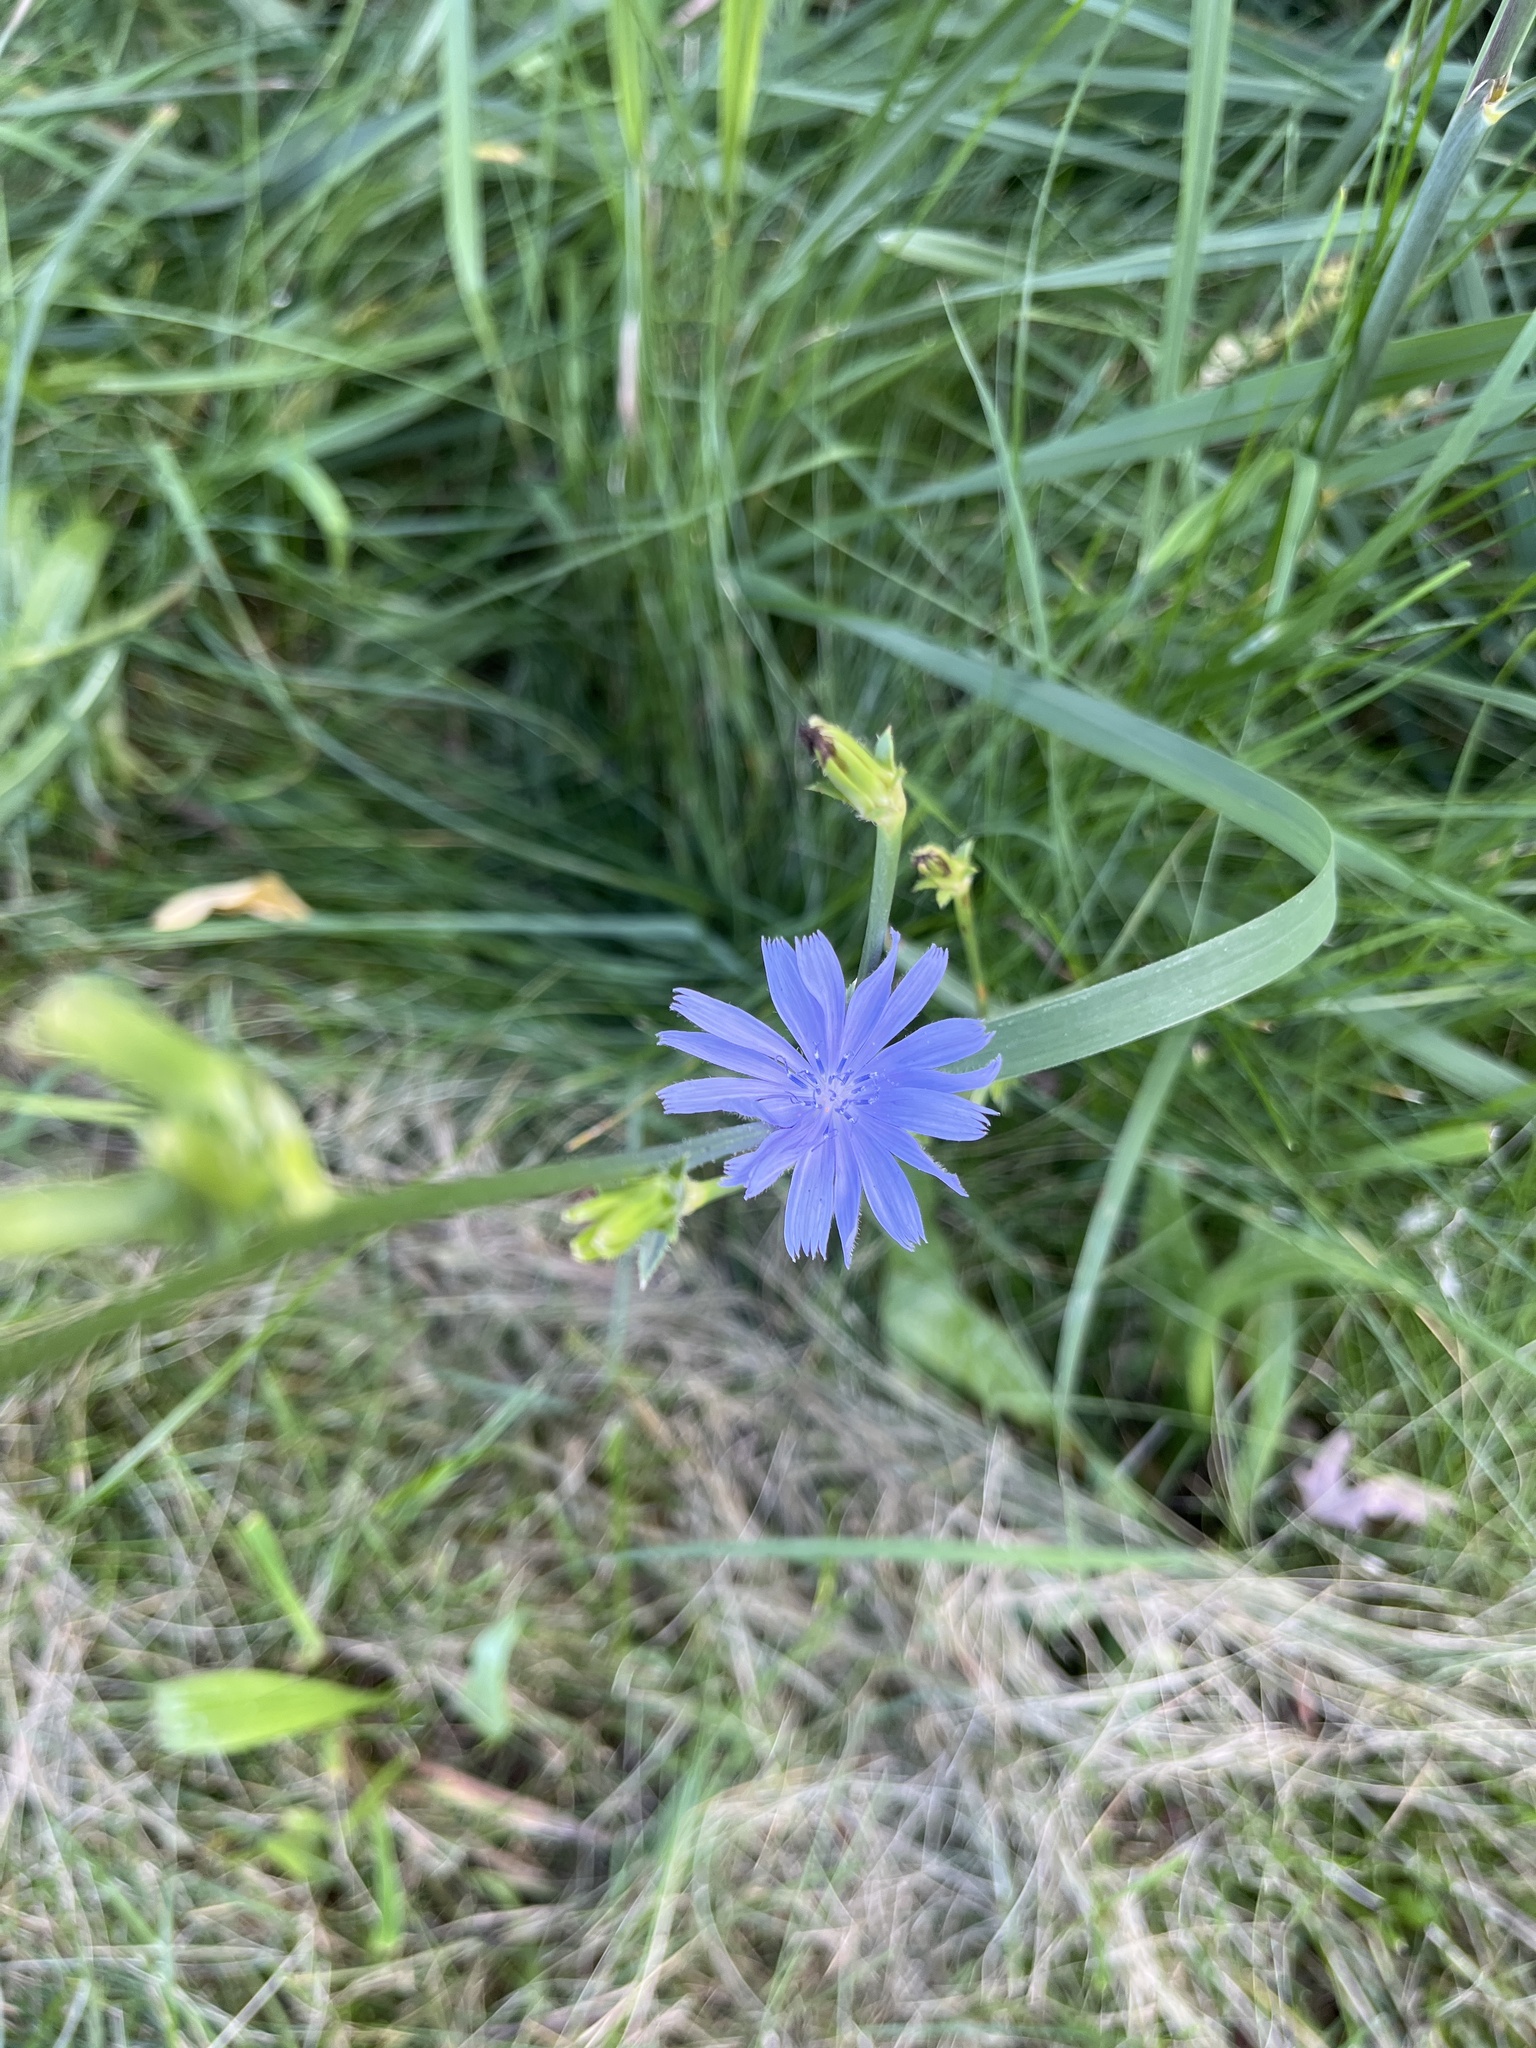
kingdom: Plantae
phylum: Tracheophyta
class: Magnoliopsida
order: Asterales
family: Asteraceae
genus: Cichorium
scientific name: Cichorium intybus
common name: Chicory
